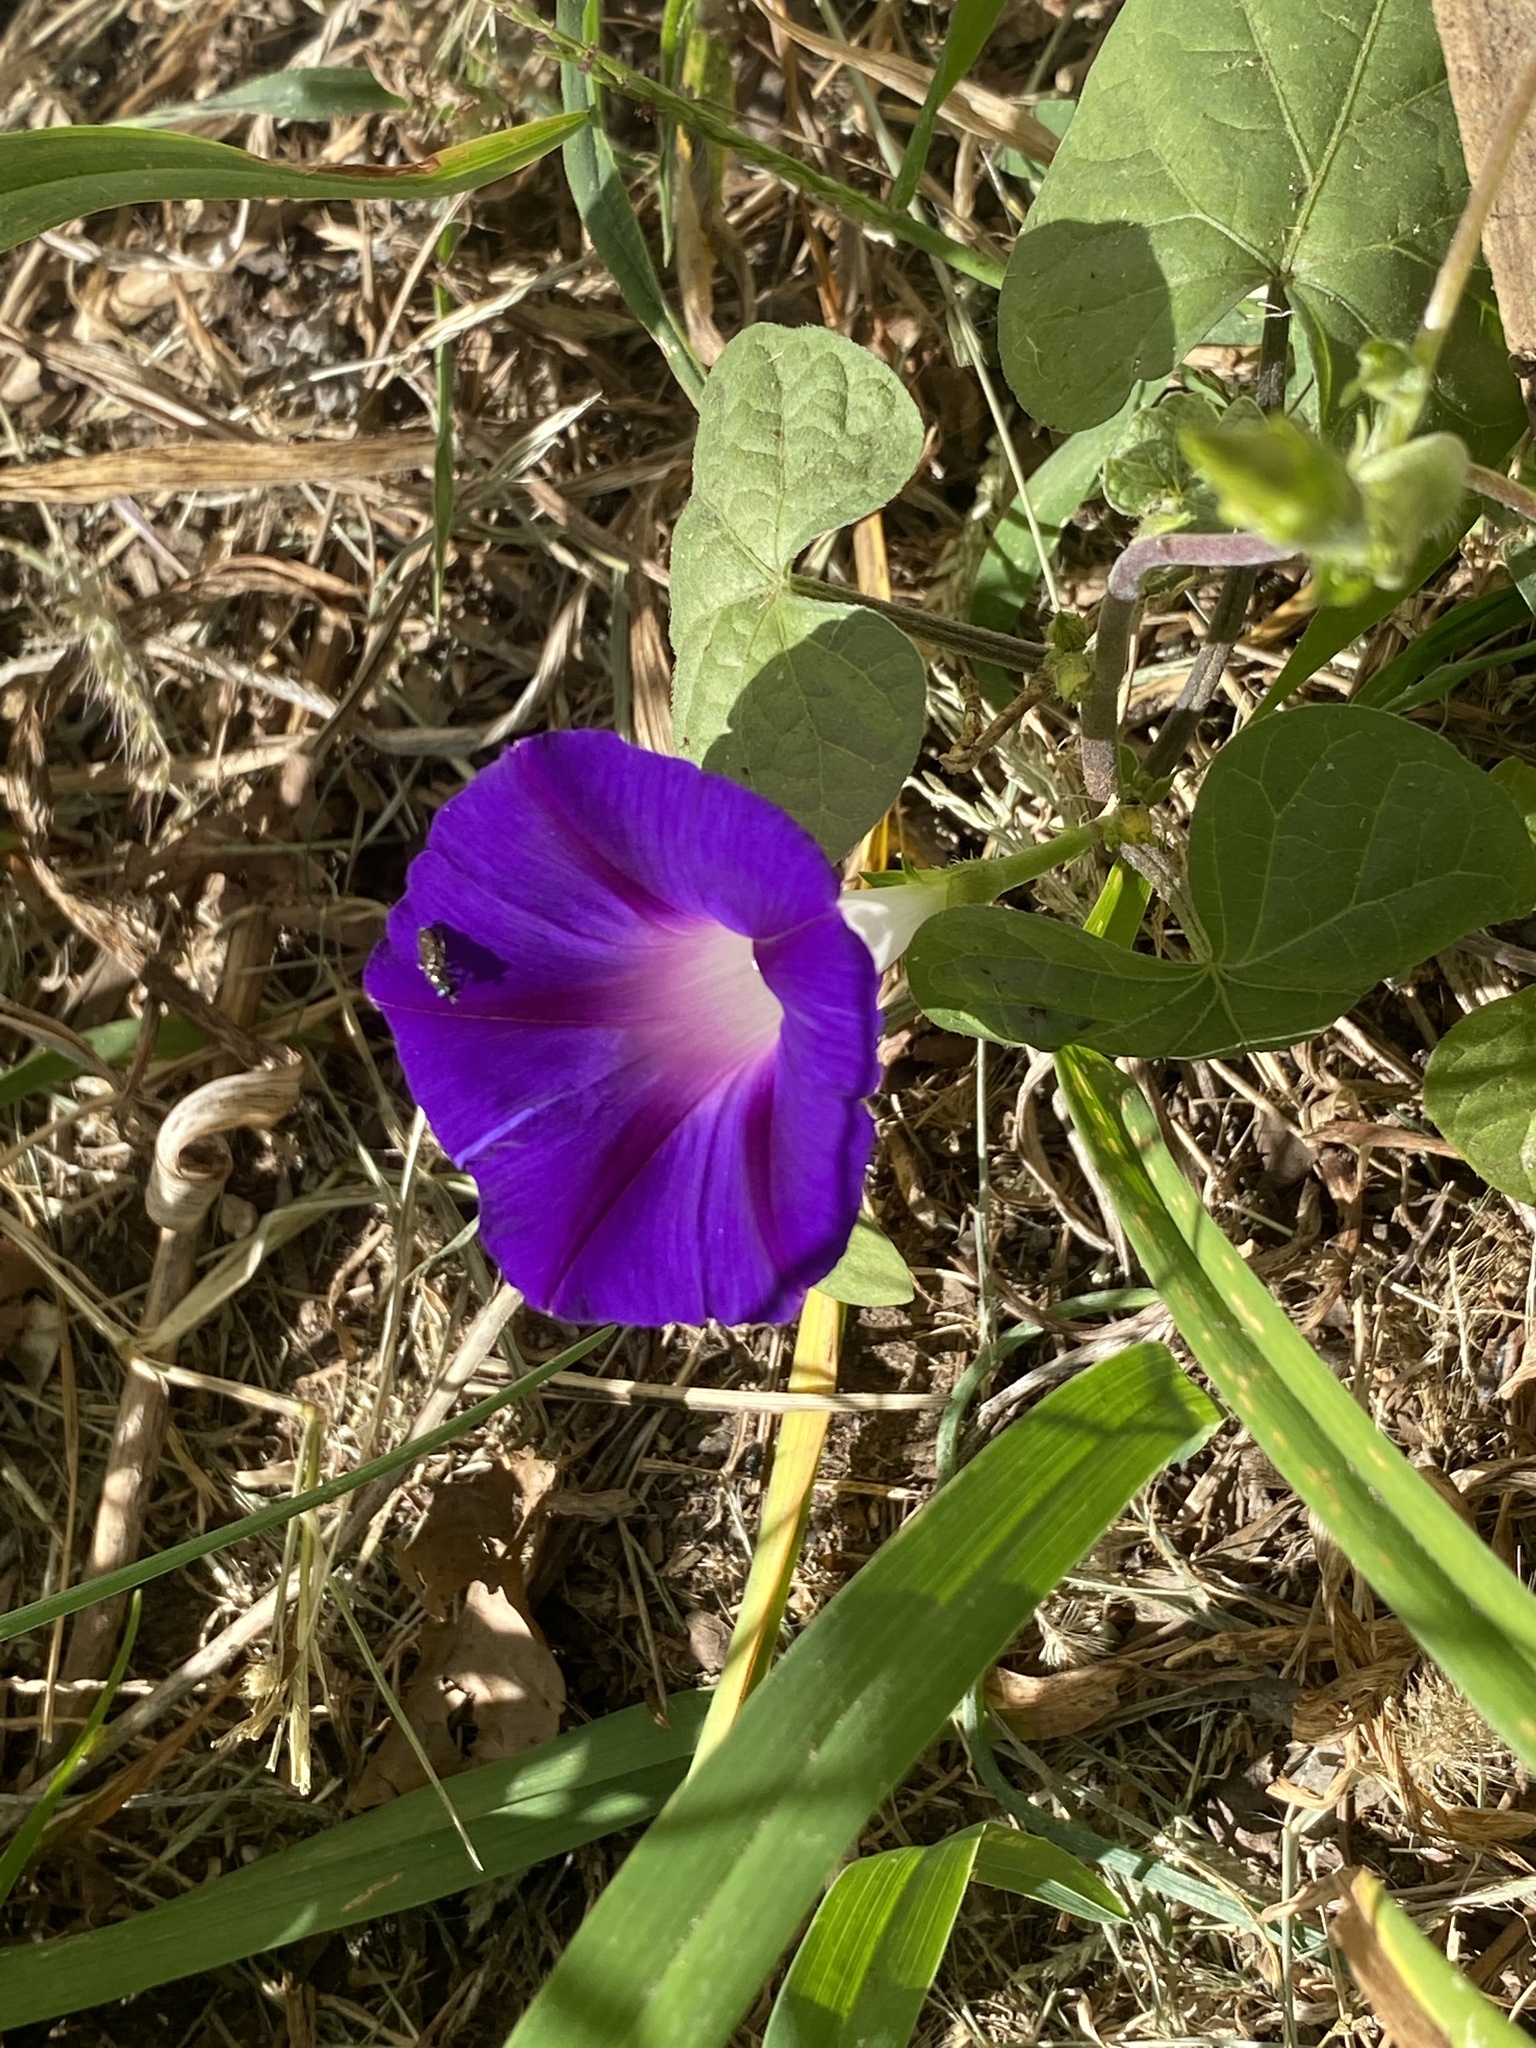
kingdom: Plantae
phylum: Tracheophyta
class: Magnoliopsida
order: Solanales
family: Convolvulaceae
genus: Ipomoea
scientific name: Ipomoea purpurea
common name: Common morning-glory
